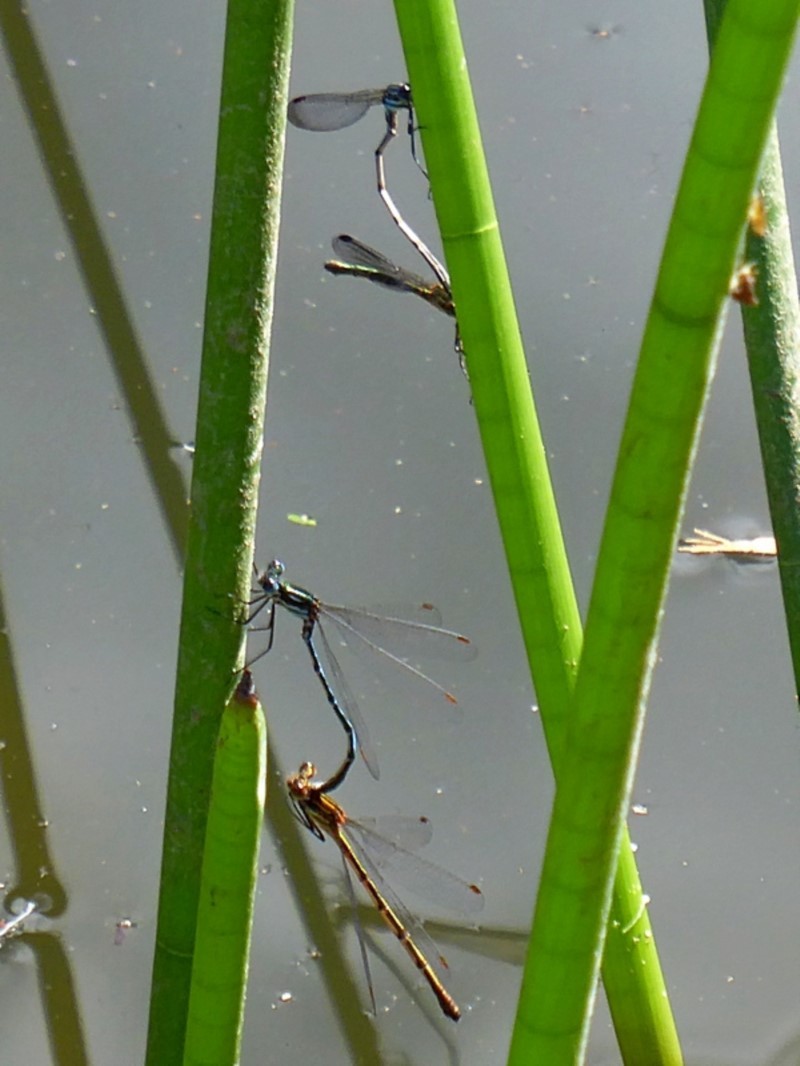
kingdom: Animalia
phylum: Arthropoda
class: Insecta
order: Odonata
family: Lestidae
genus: Austrolestes
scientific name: Austrolestes psyche
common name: Cup ringtail
